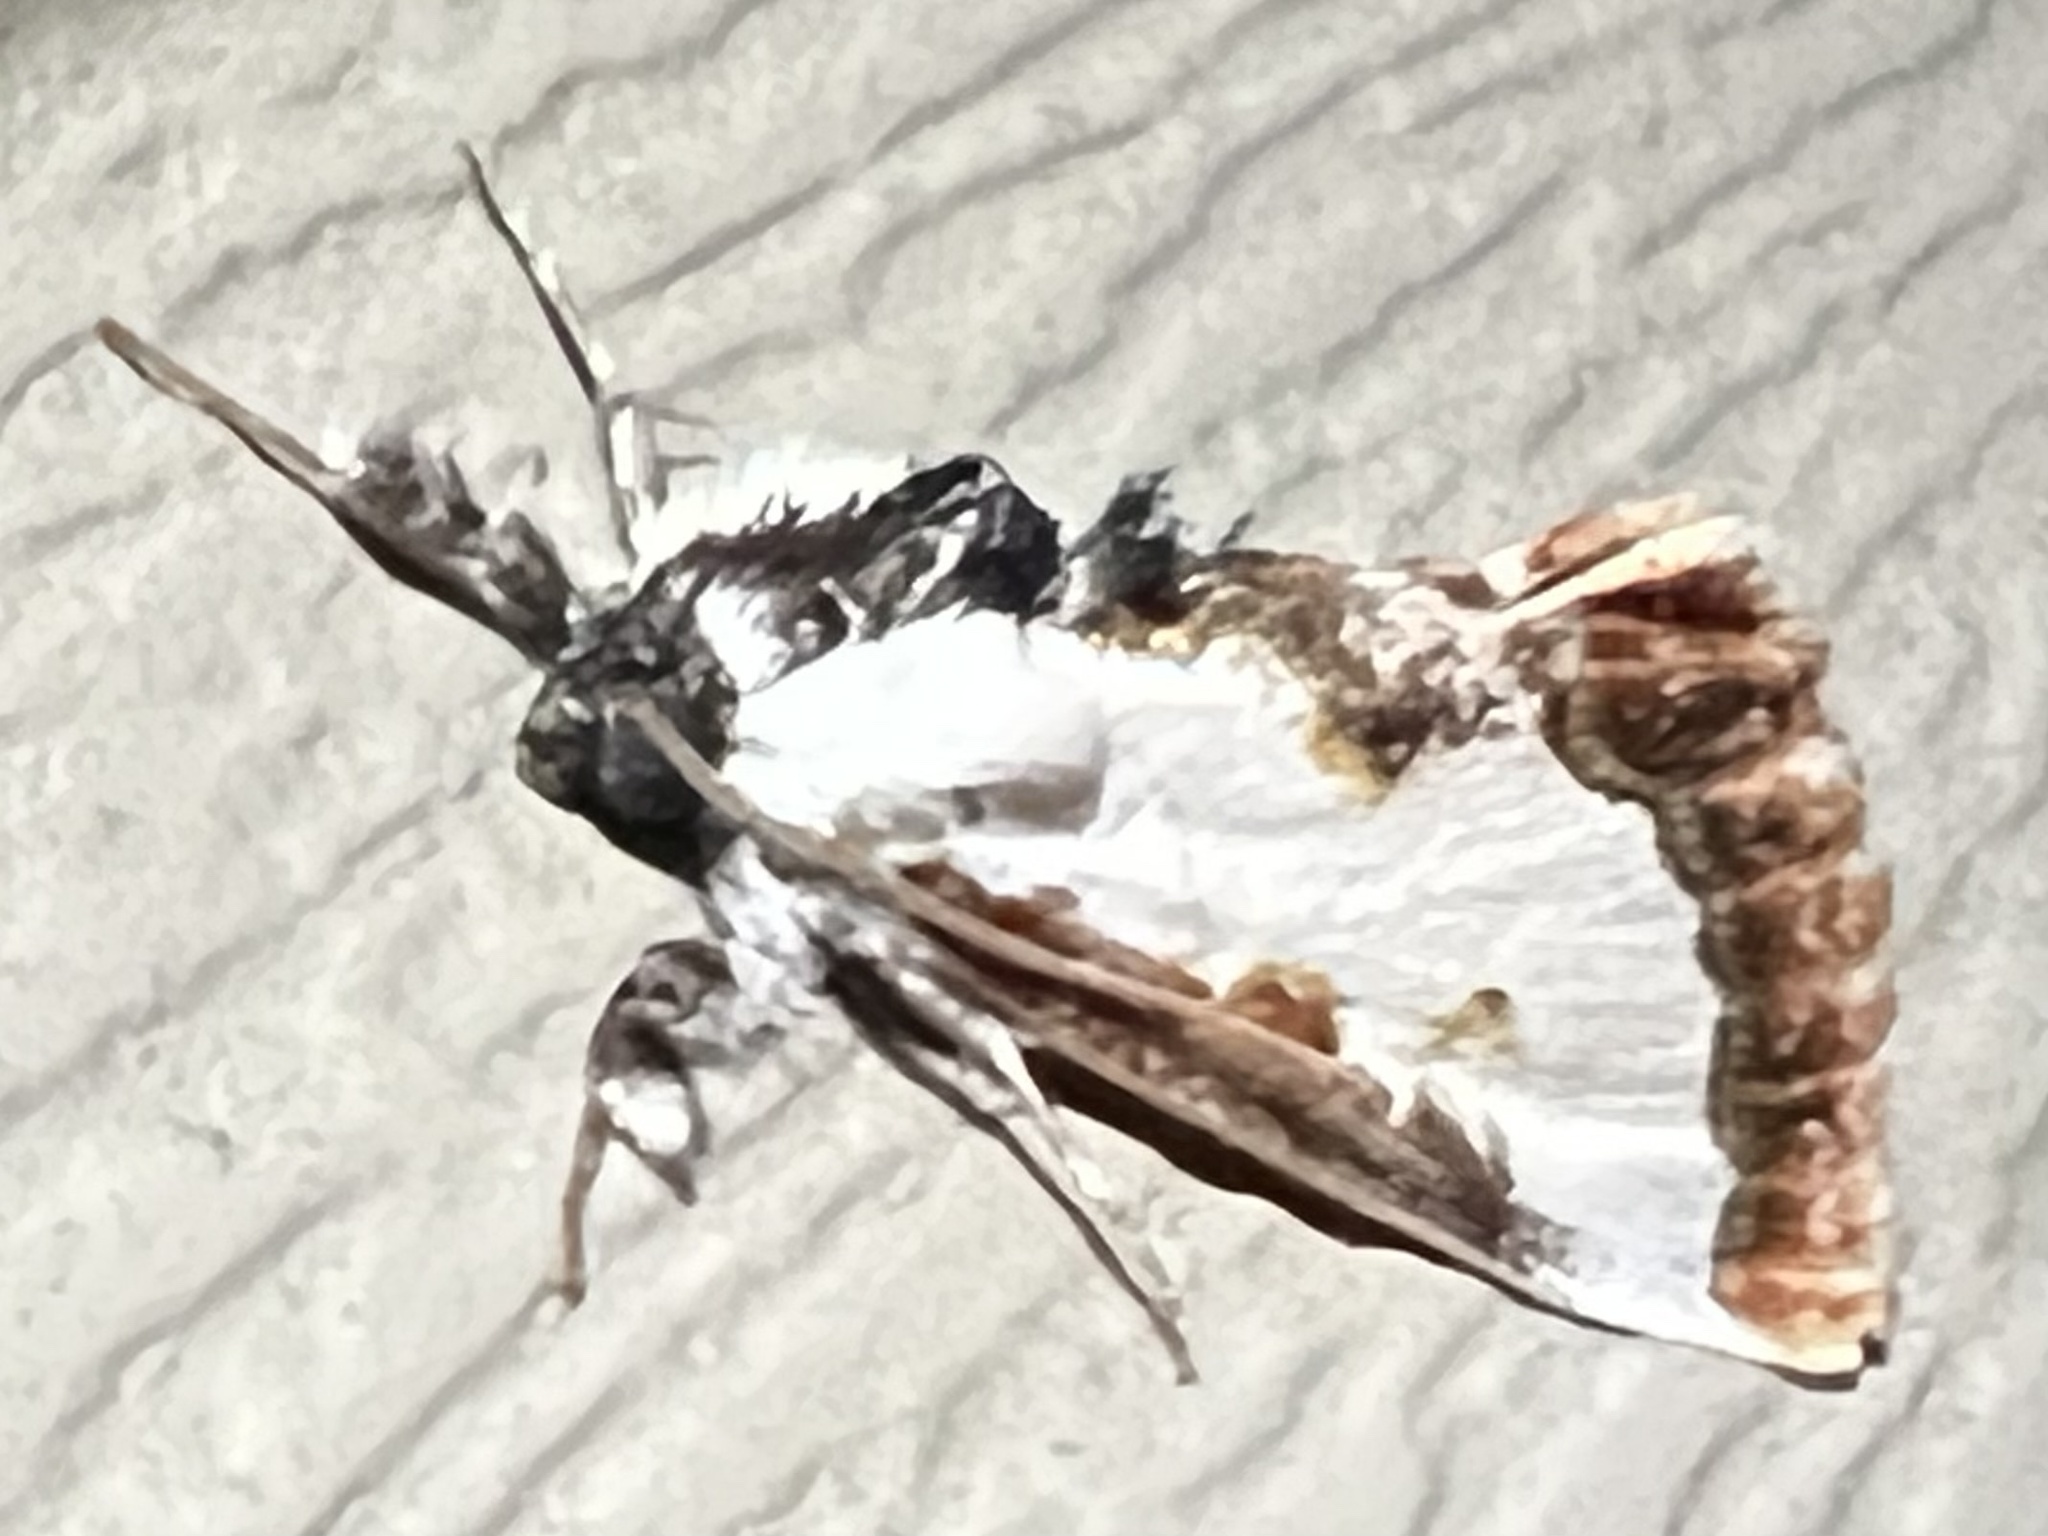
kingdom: Animalia
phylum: Arthropoda
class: Insecta
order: Lepidoptera
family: Noctuidae
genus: Eudryas
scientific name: Eudryas unio
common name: Pearly wood-nymph
